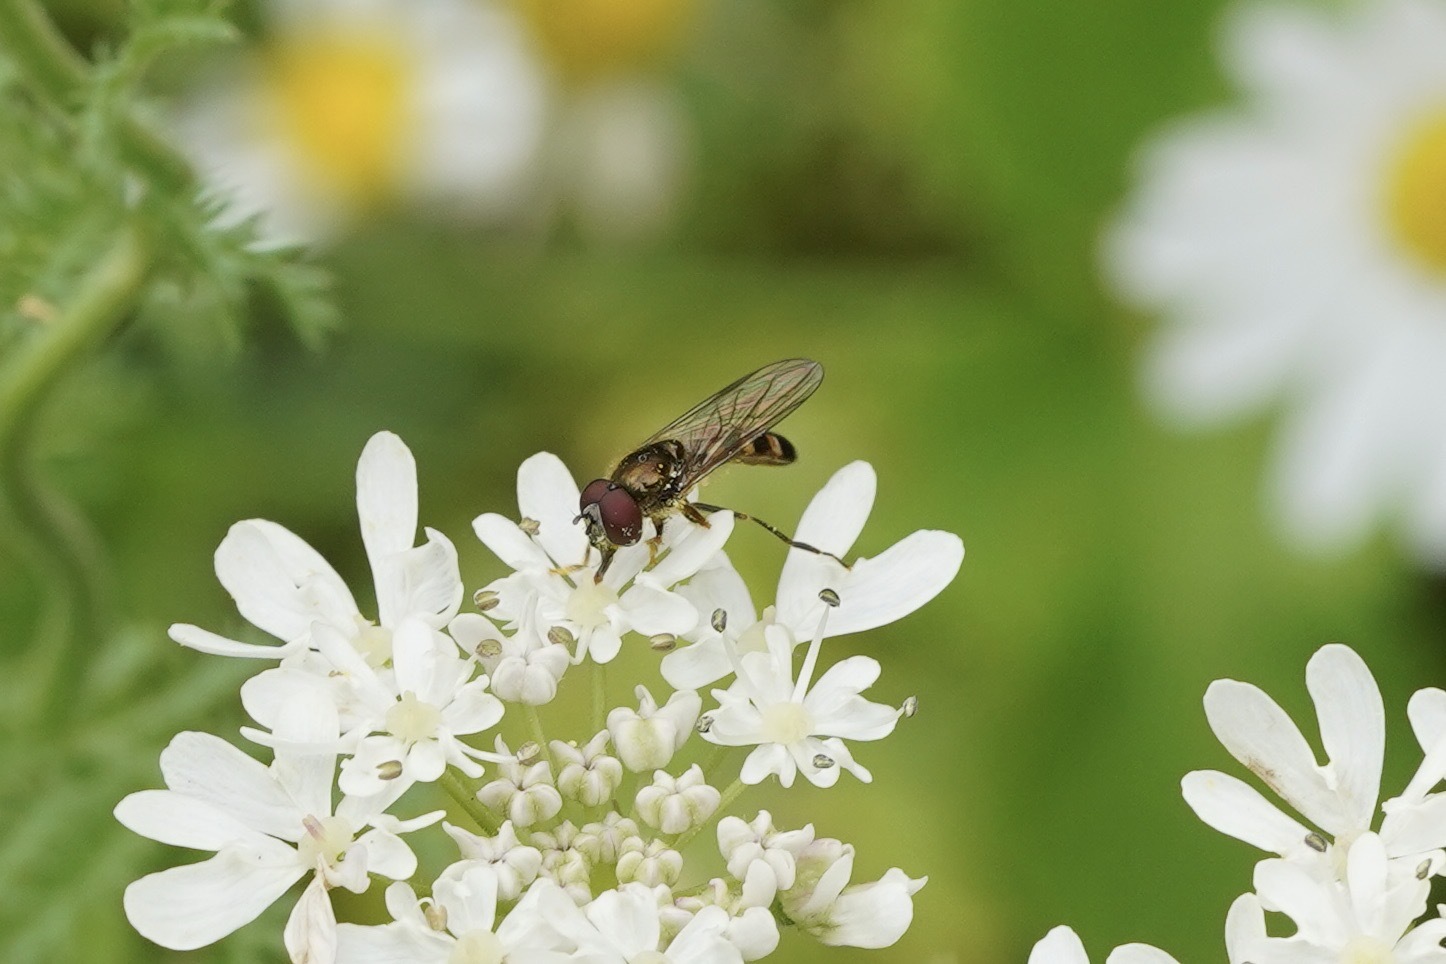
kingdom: Animalia
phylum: Arthropoda
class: Insecta
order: Diptera
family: Syrphidae
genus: Platycheirus
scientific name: Platycheirus scutatus
